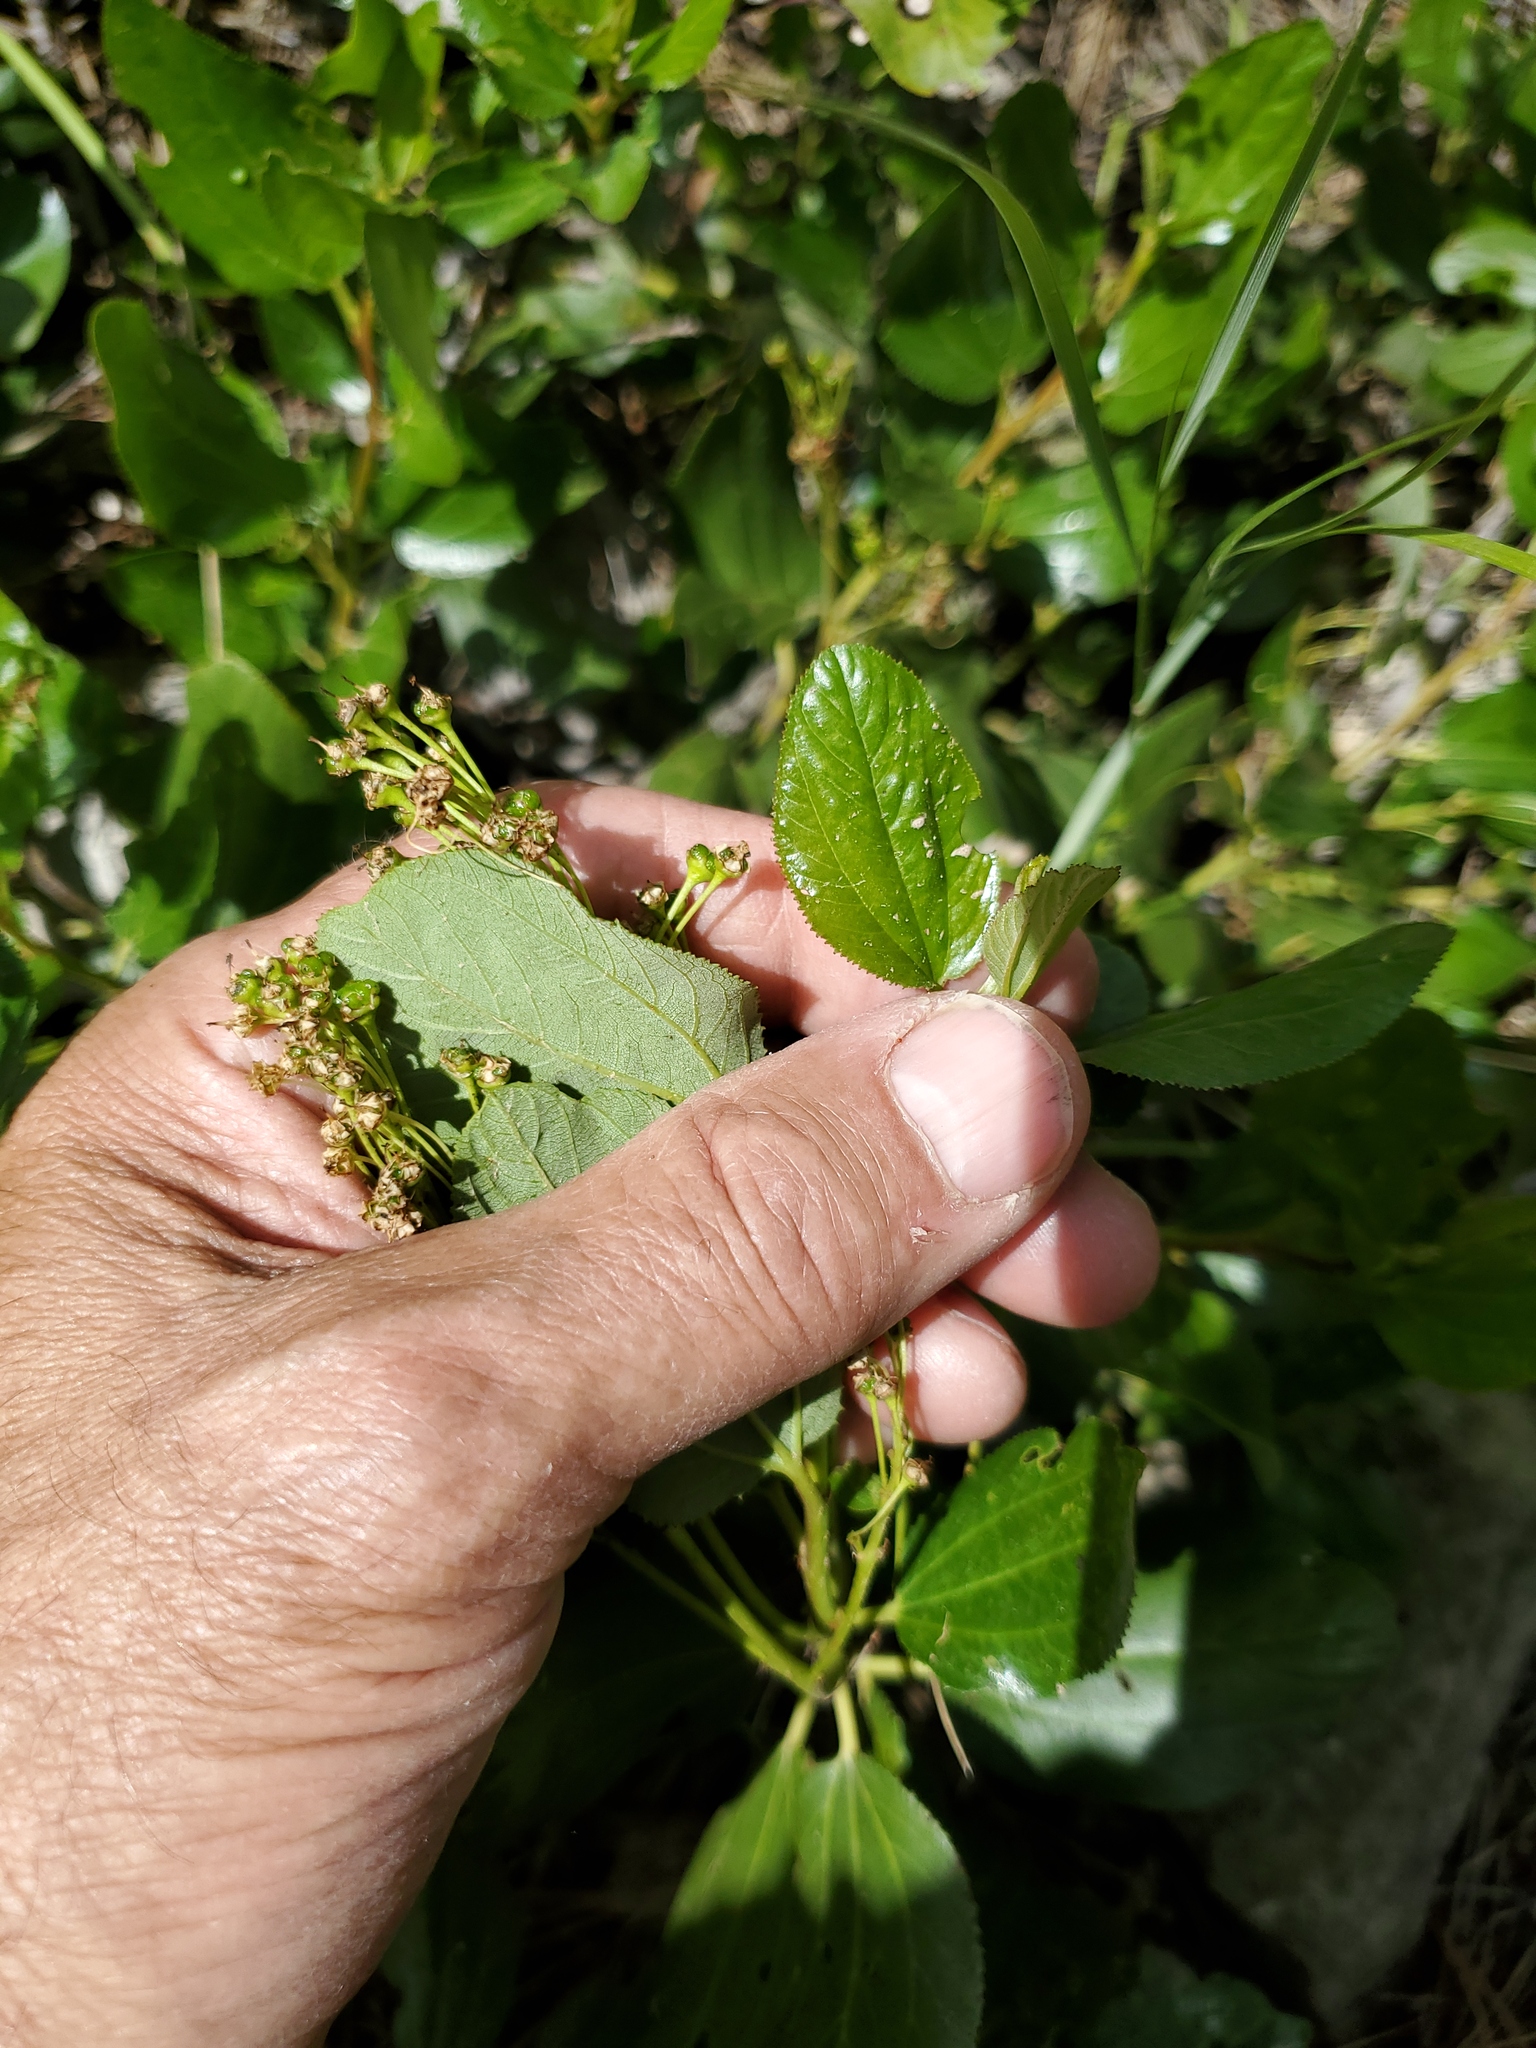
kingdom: Plantae
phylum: Tracheophyta
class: Magnoliopsida
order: Rosales
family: Rhamnaceae
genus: Ceanothus
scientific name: Ceanothus velutinus
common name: Snowbrush
